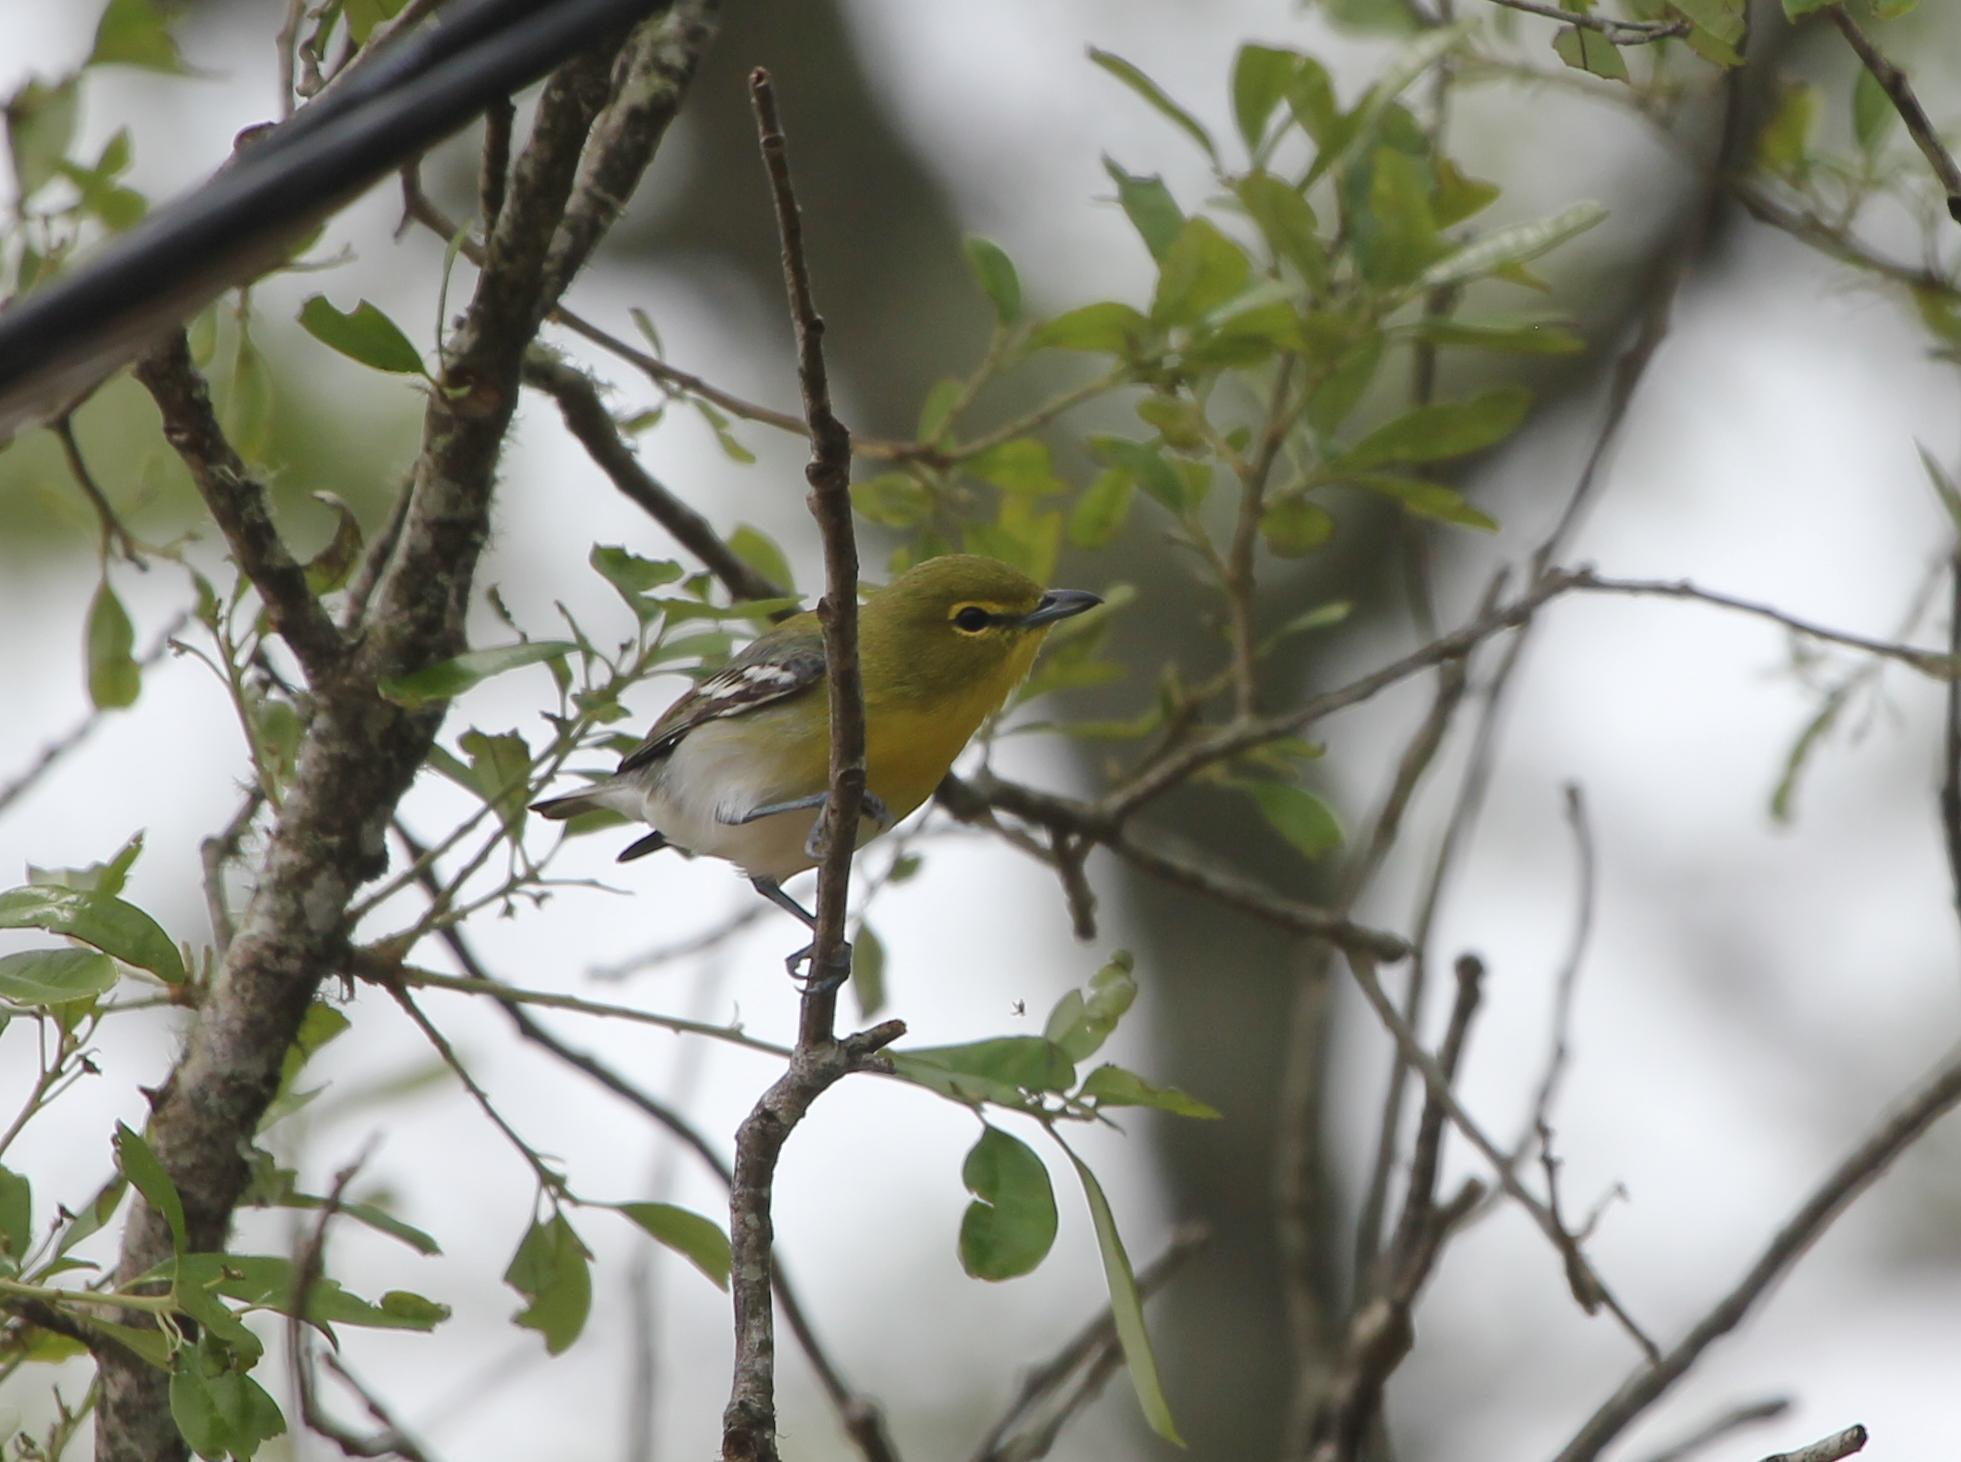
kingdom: Animalia
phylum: Chordata
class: Aves
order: Passeriformes
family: Vireonidae
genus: Vireo
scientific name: Vireo flavifrons
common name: Yellow-throated vireo
